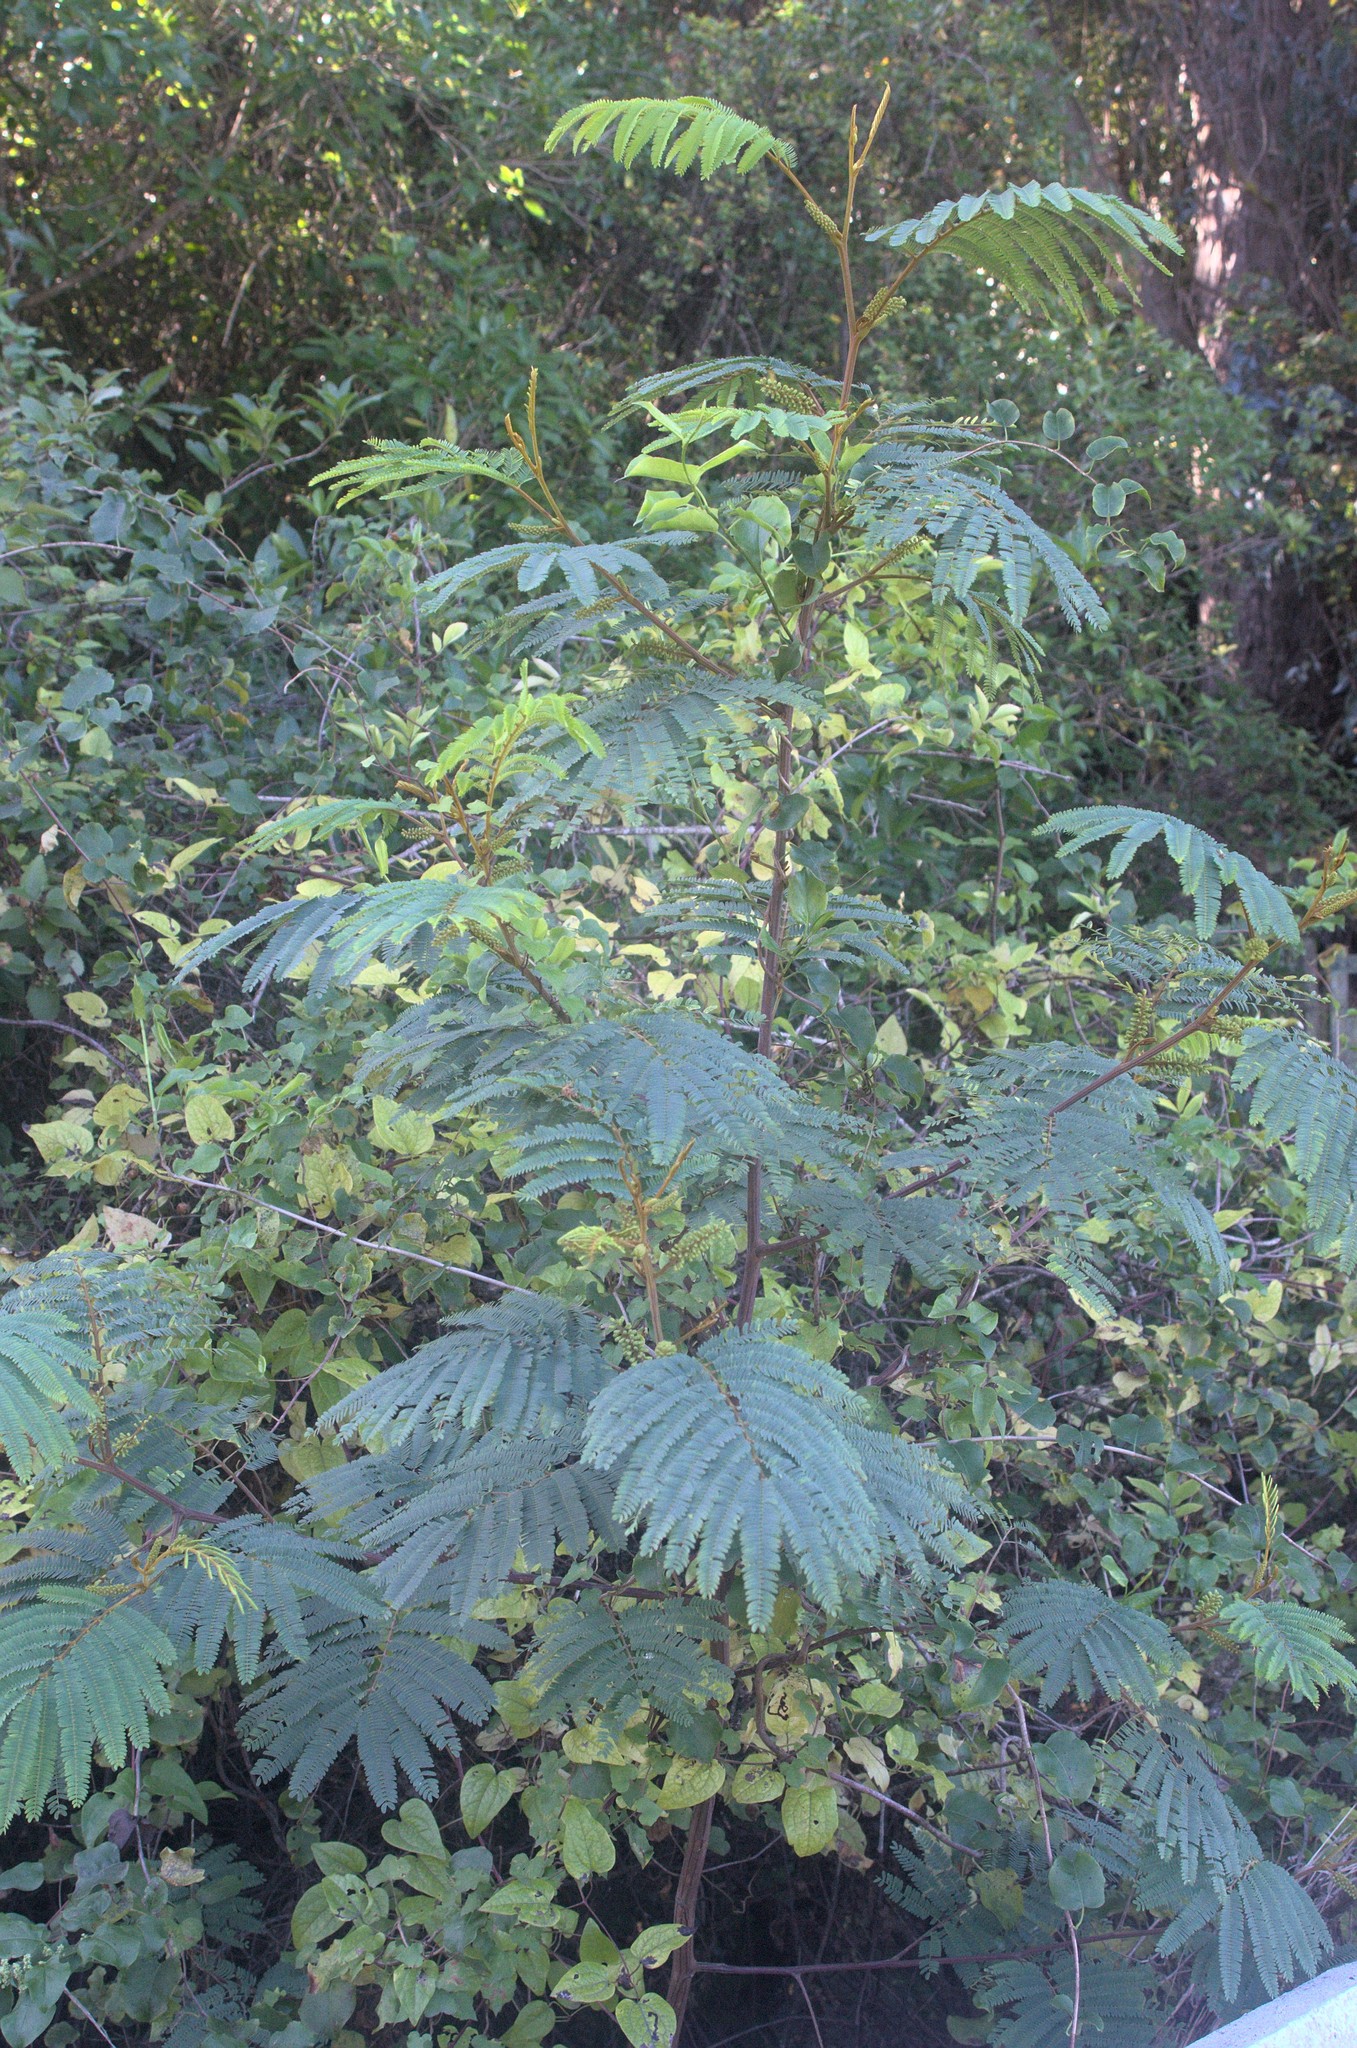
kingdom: Plantae
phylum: Tracheophyta
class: Magnoliopsida
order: Fabales
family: Fabaceae
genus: Paraserianthes
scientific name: Paraserianthes lophantha
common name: Plume albizia
